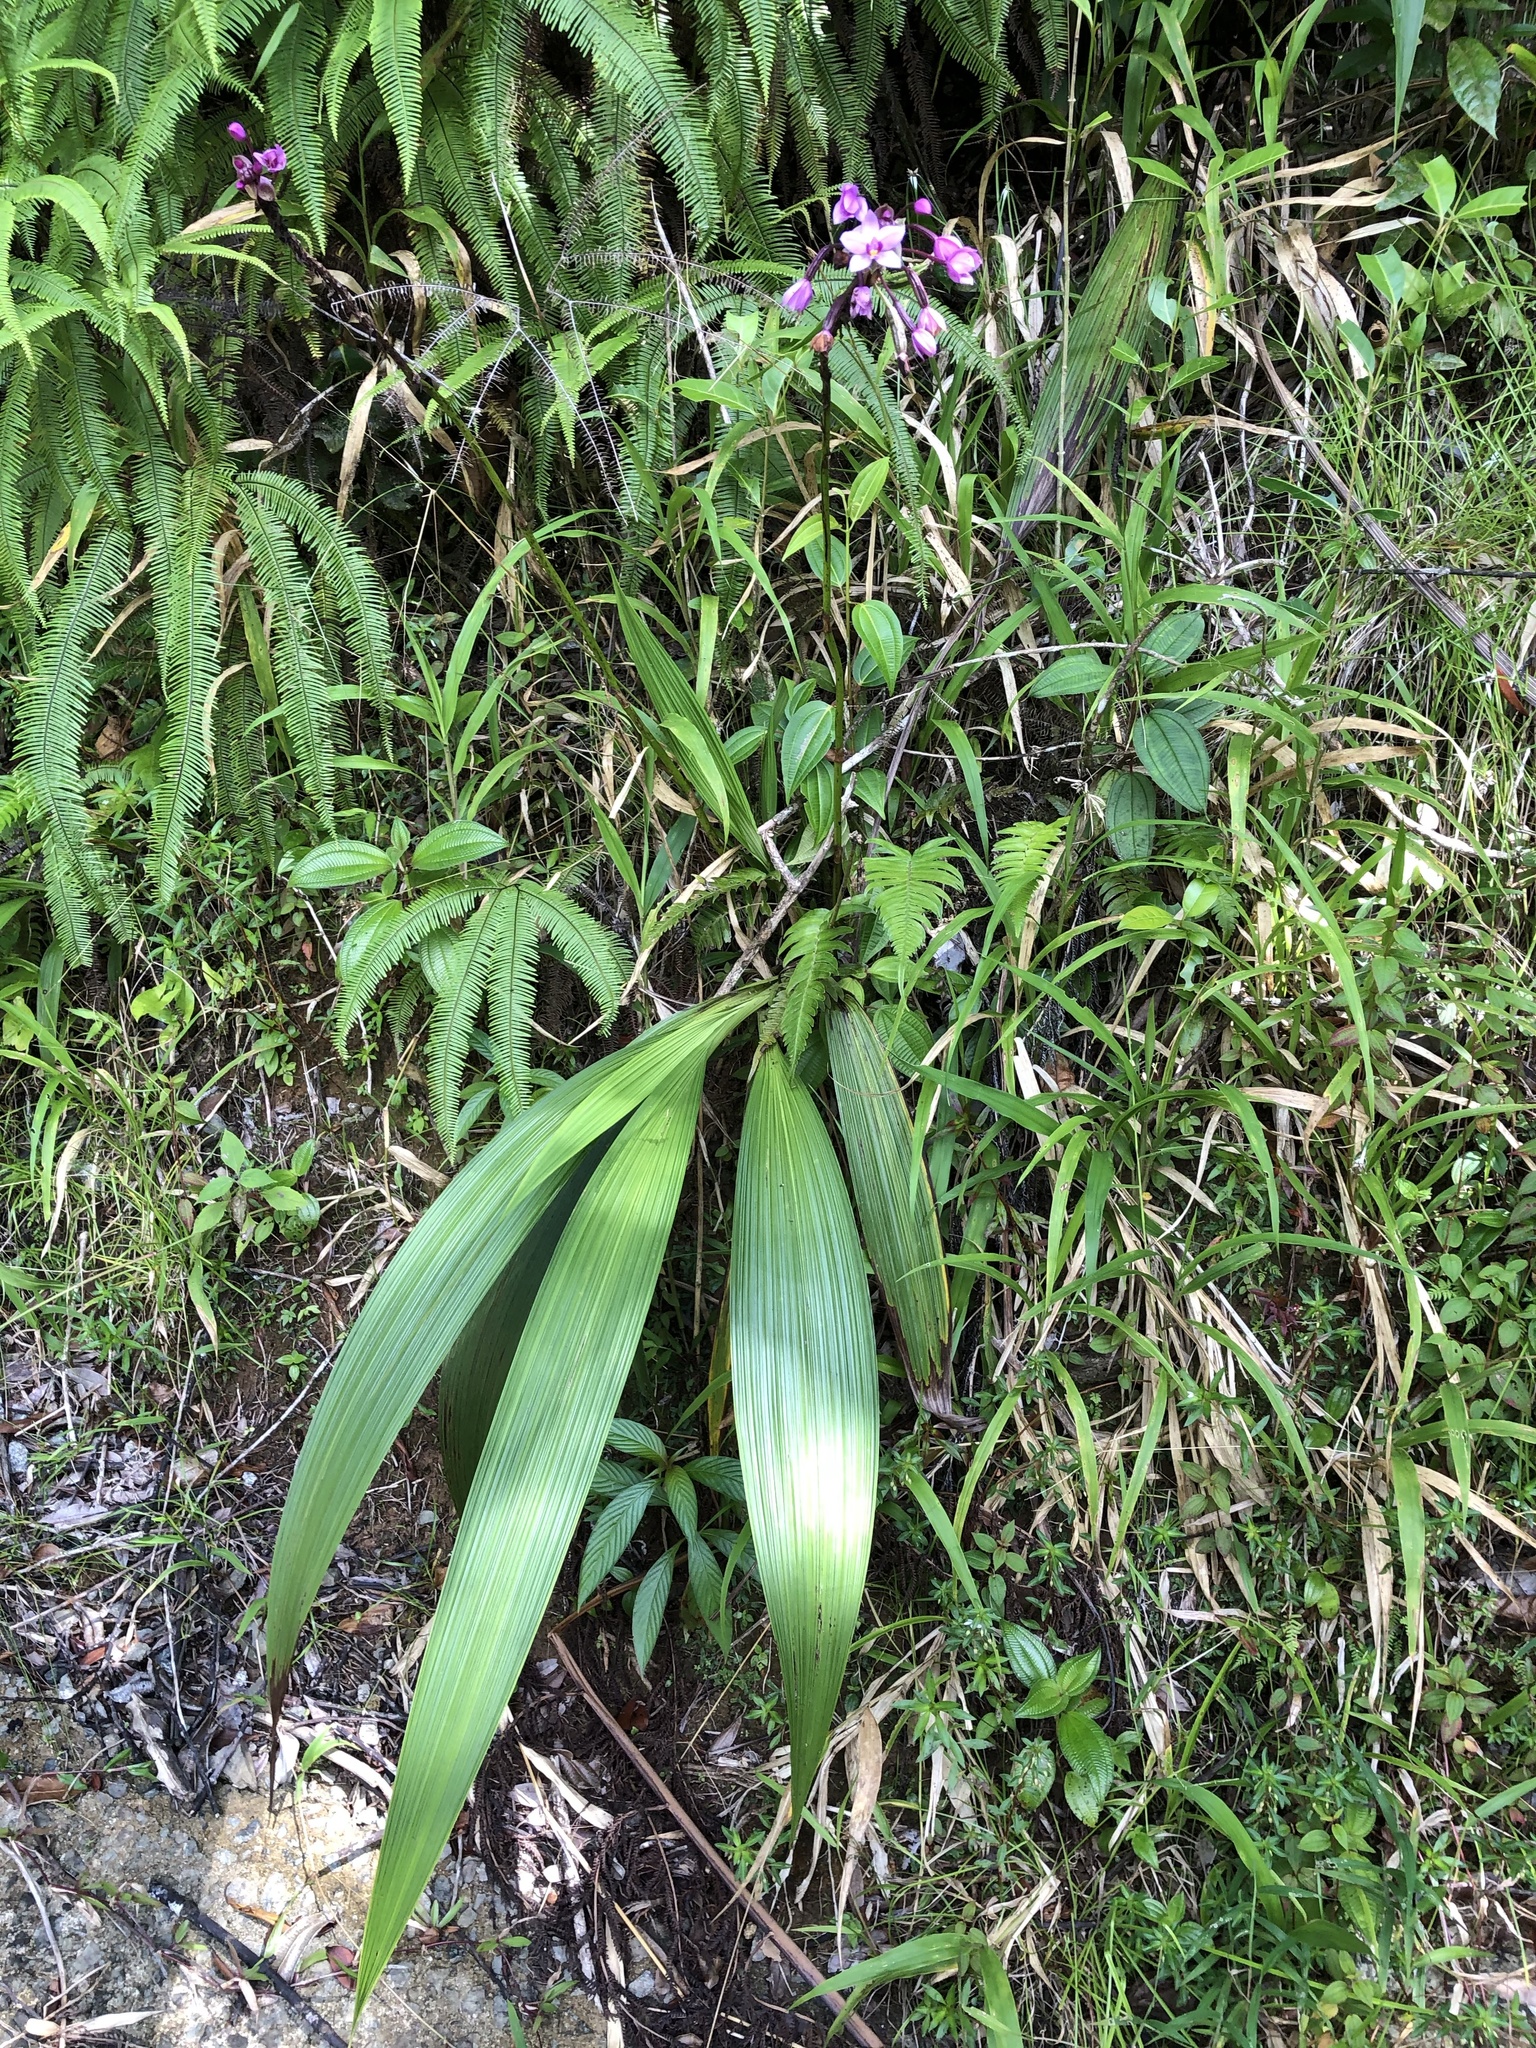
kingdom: Plantae
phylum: Tracheophyta
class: Liliopsida
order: Asparagales
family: Orchidaceae
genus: Spathoglottis
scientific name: Spathoglottis plicata
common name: Philippine ground orchid
